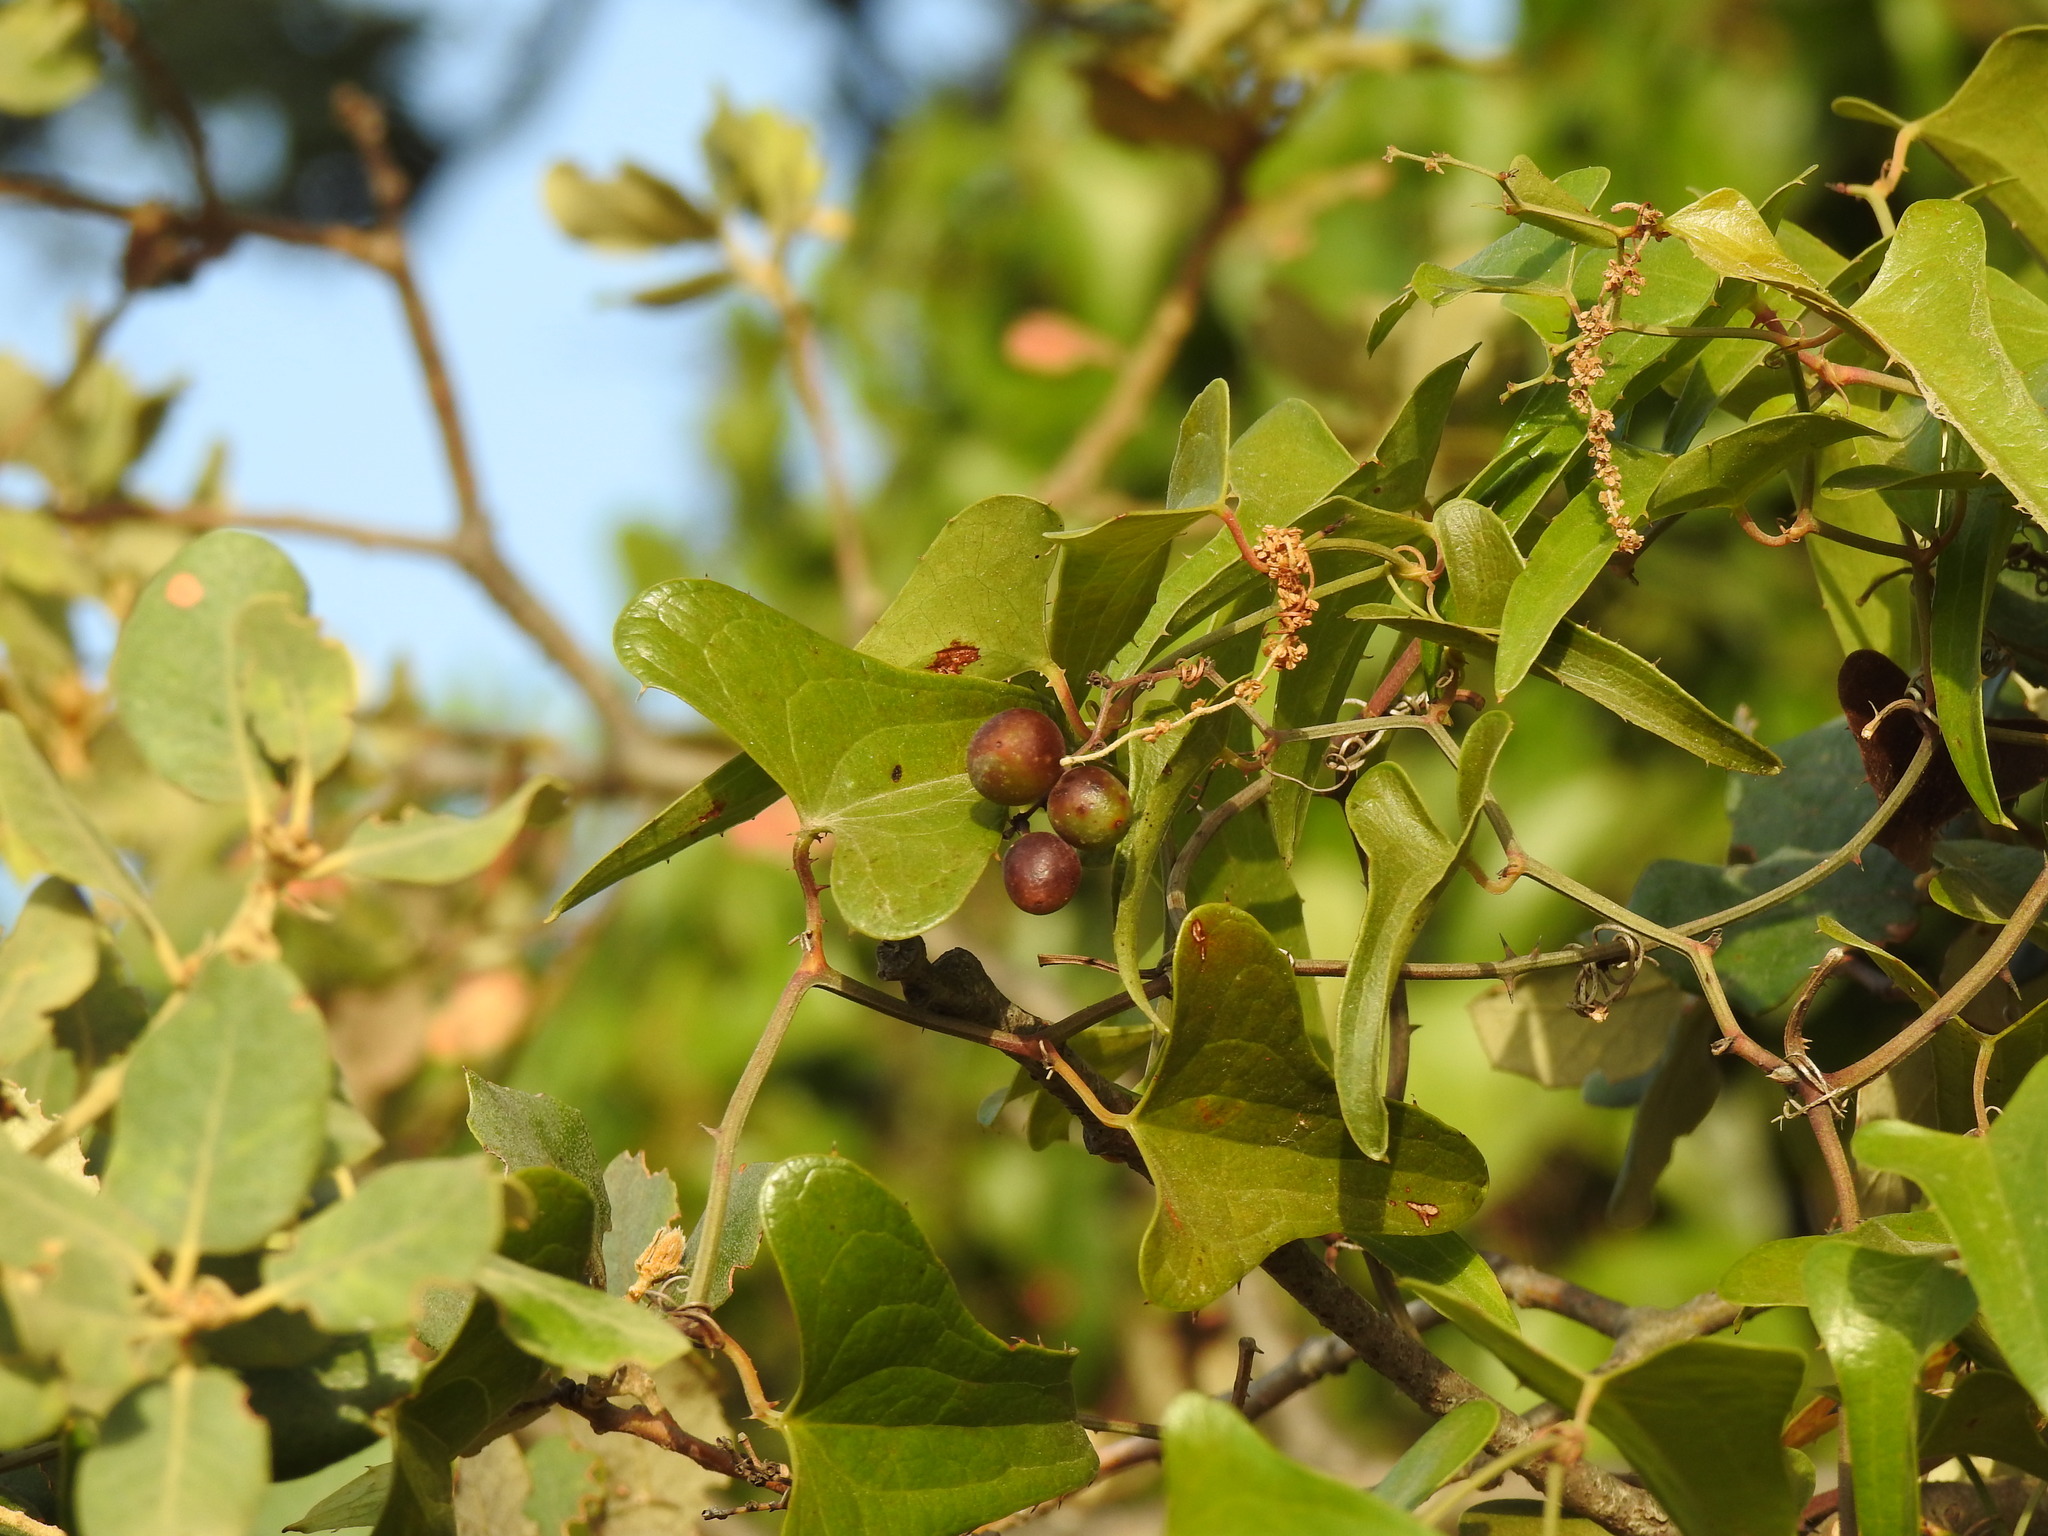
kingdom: Plantae
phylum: Tracheophyta
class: Liliopsida
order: Liliales
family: Smilacaceae
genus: Smilax
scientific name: Smilax aspera
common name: Common smilax
